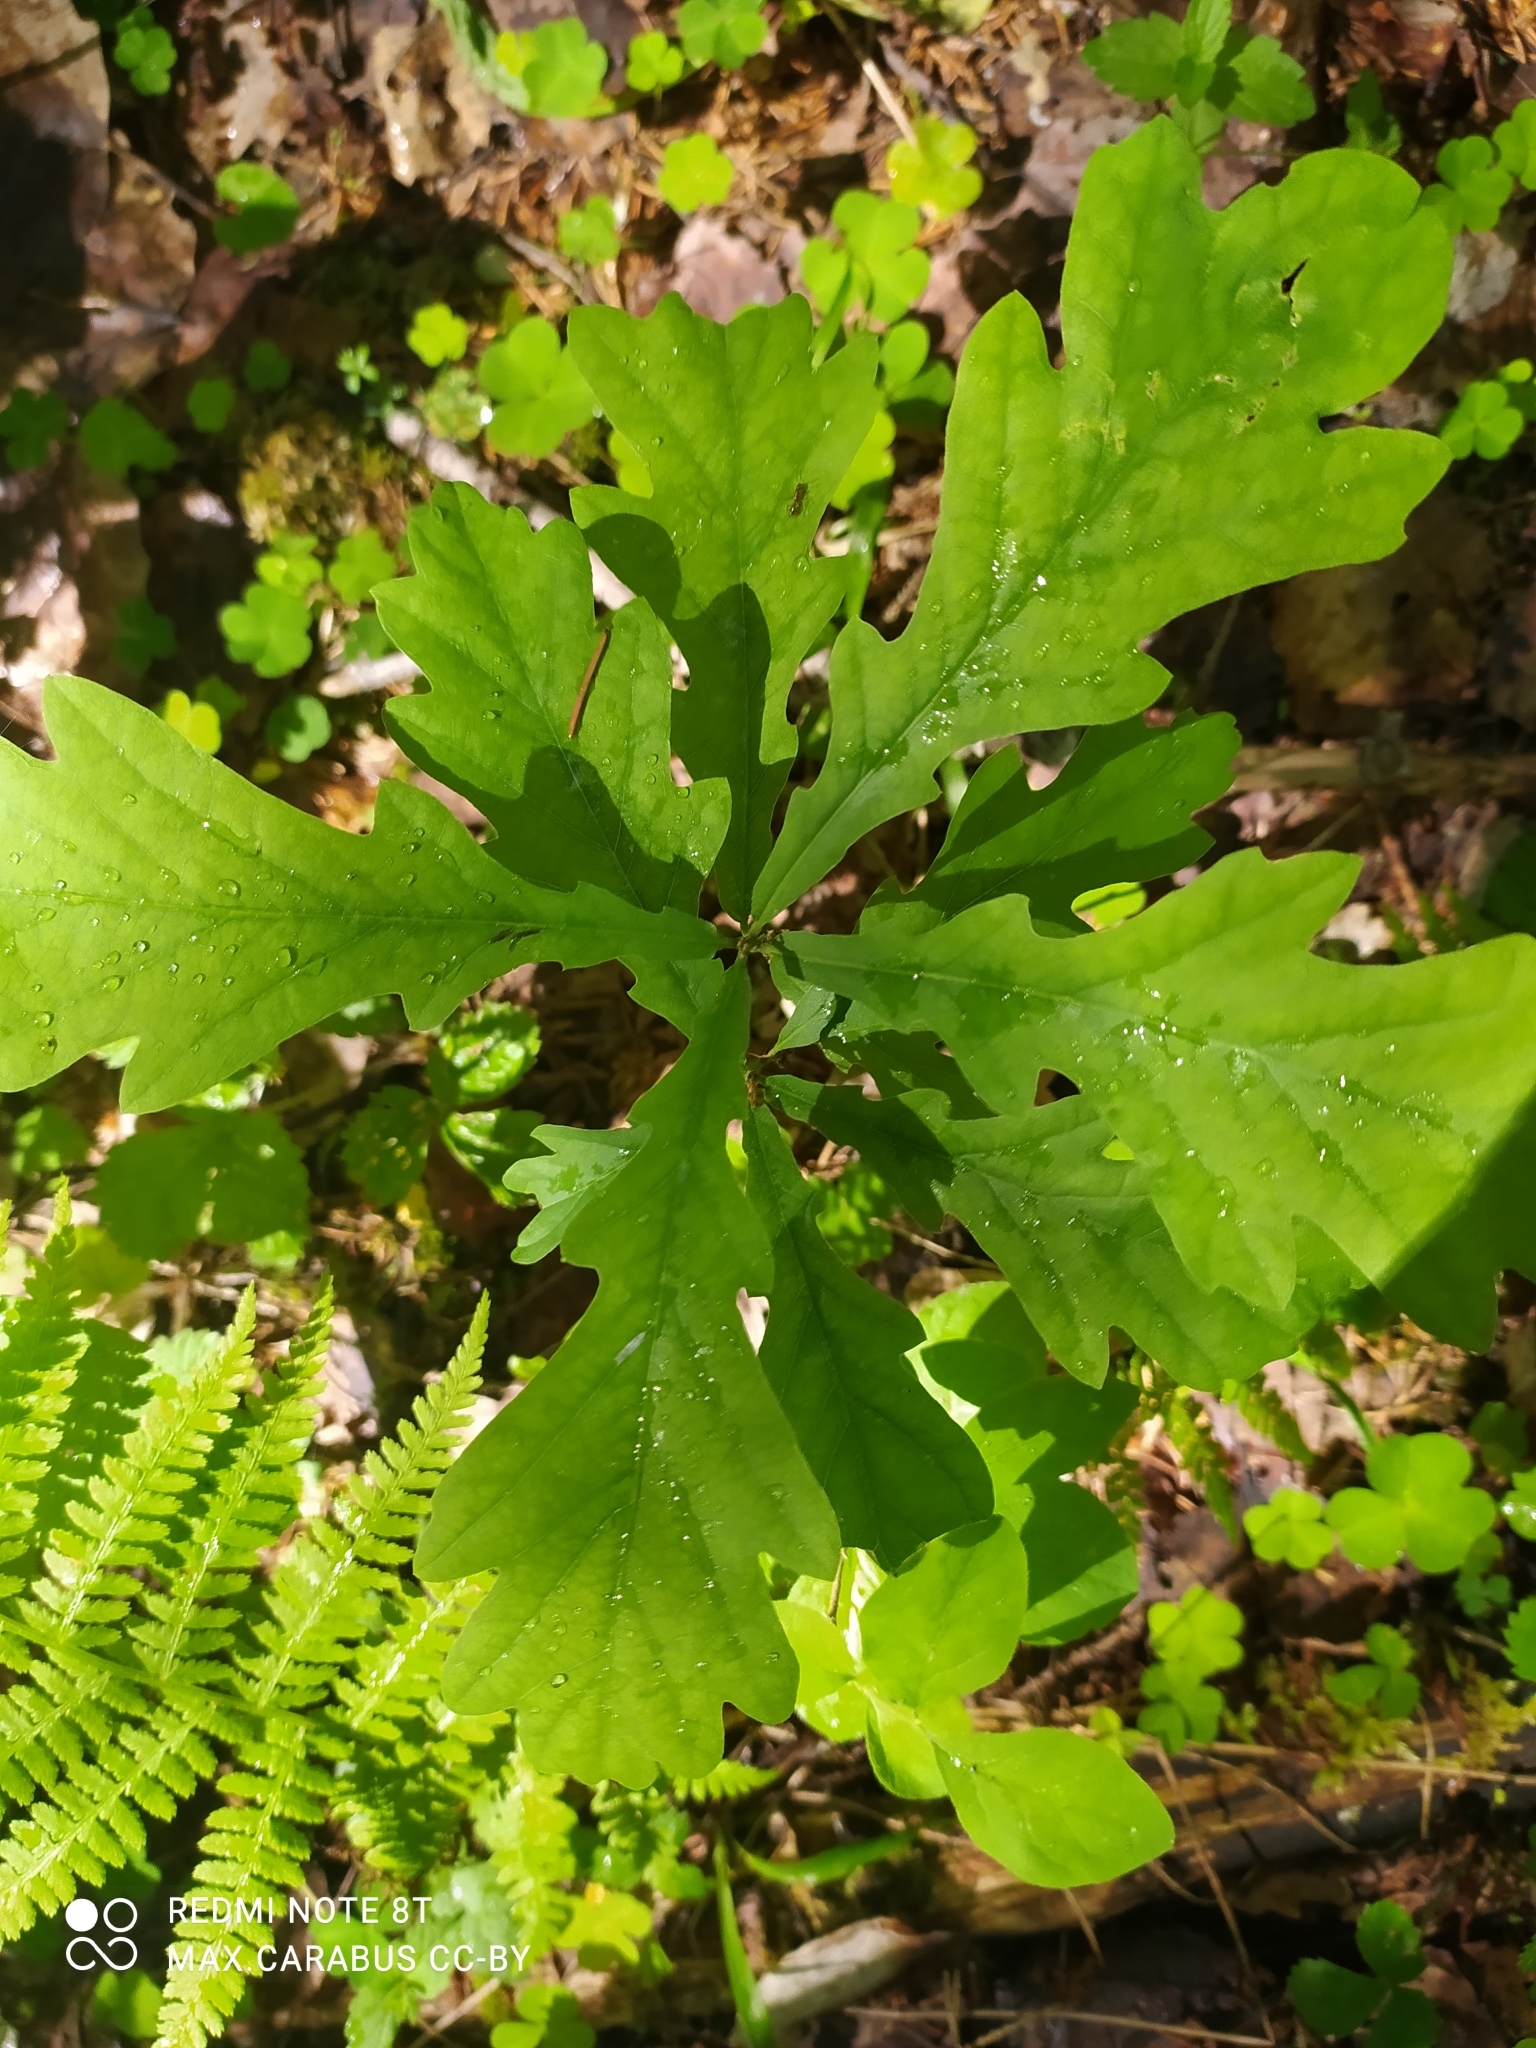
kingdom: Plantae
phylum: Tracheophyta
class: Magnoliopsida
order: Fagales
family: Fagaceae
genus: Quercus
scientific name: Quercus robur
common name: Pedunculate oak
